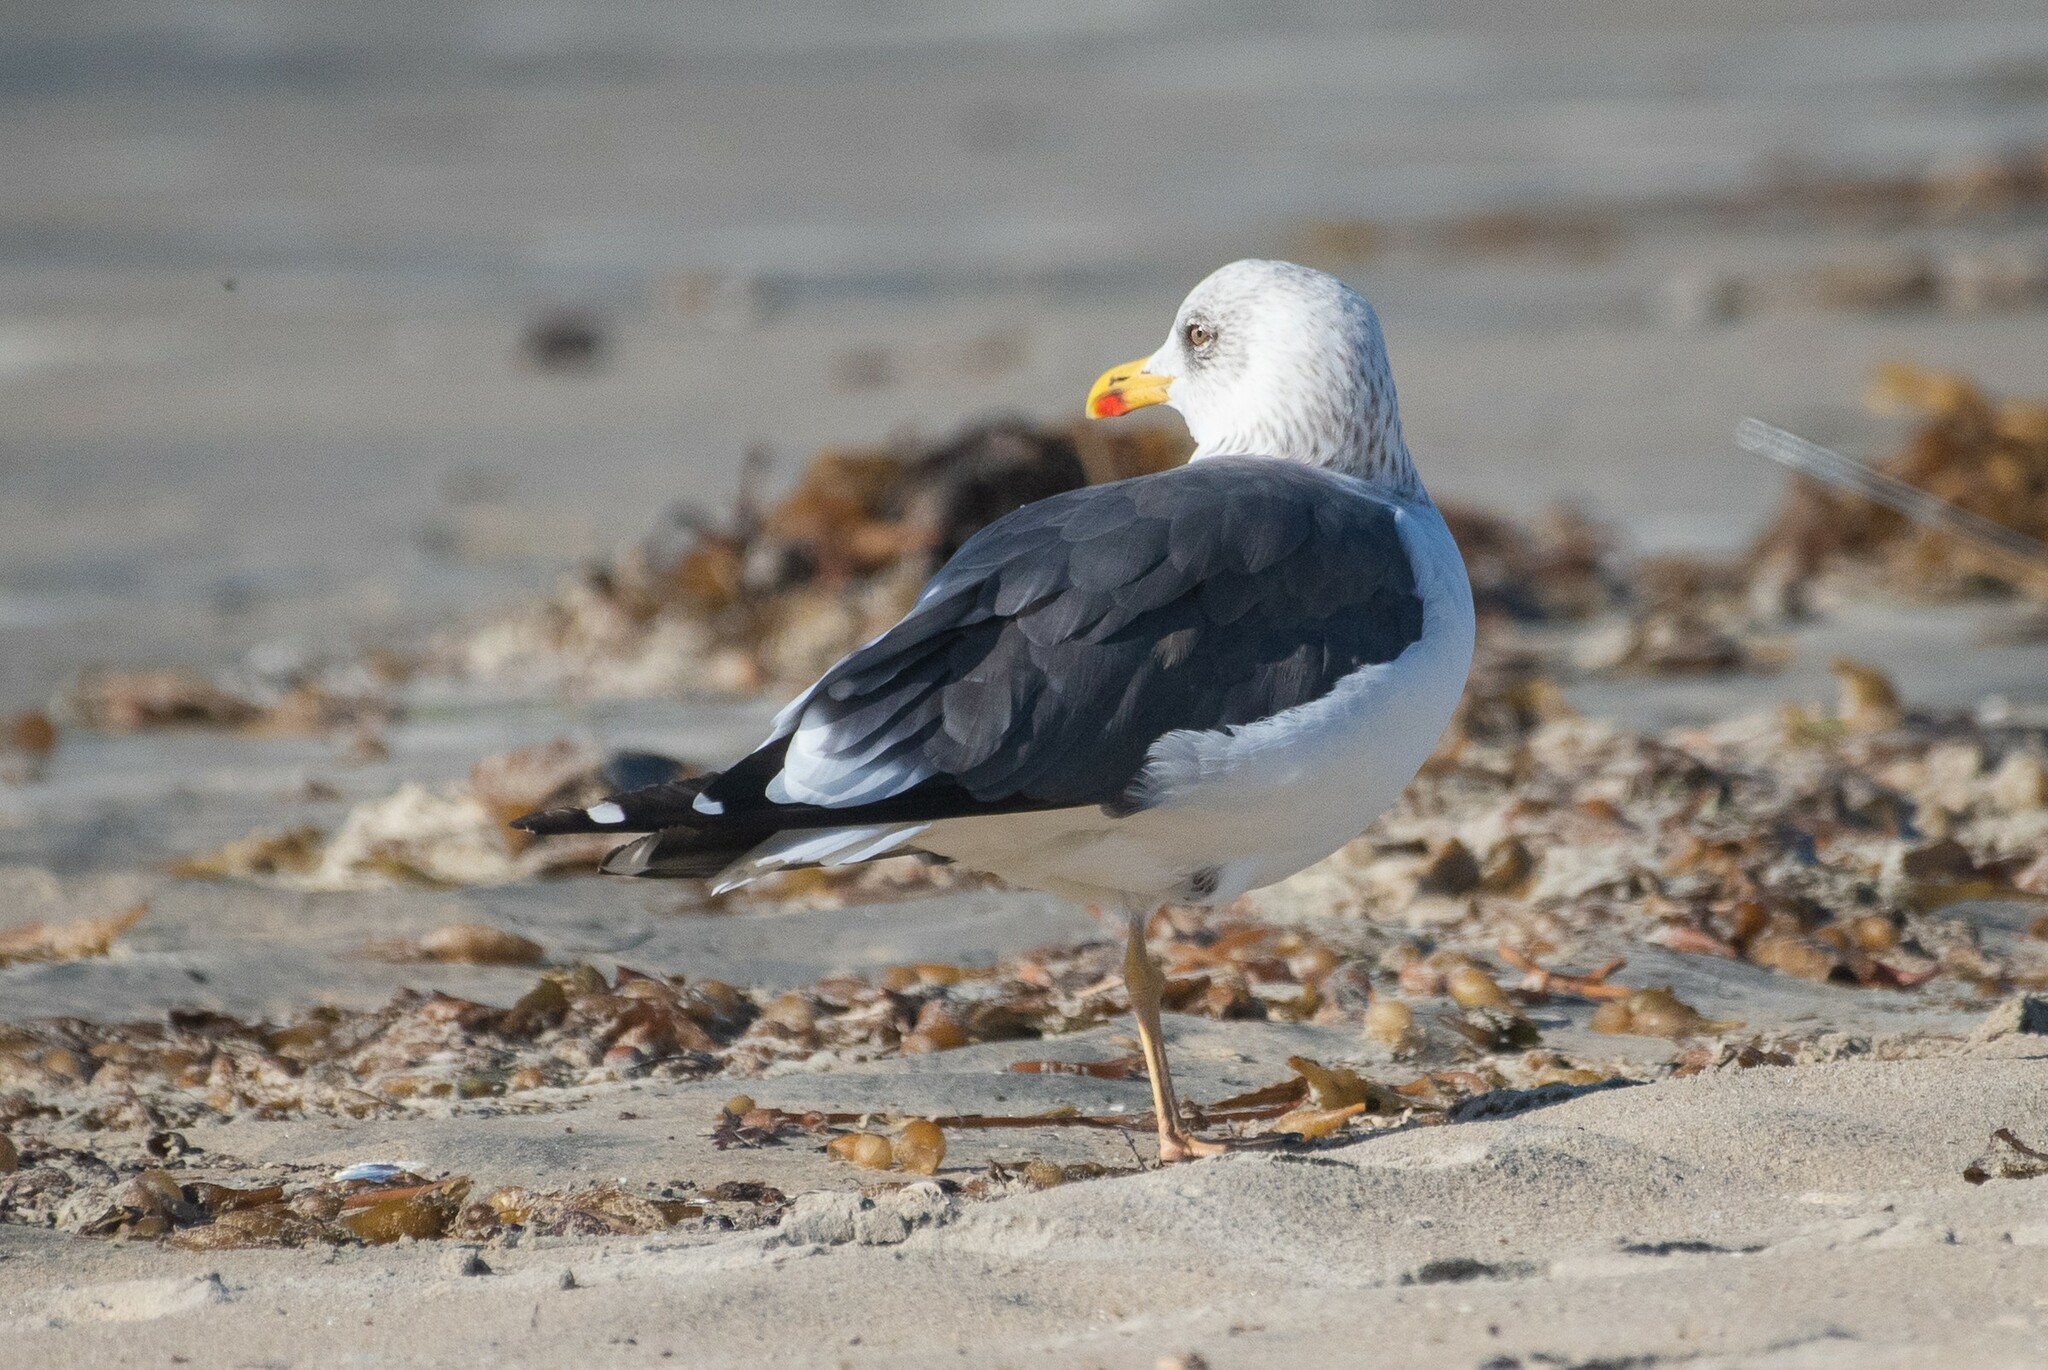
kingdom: Animalia
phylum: Chordata
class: Aves
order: Charadriiformes
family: Laridae
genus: Larus
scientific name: Larus fuscus
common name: Lesser black-backed gull
